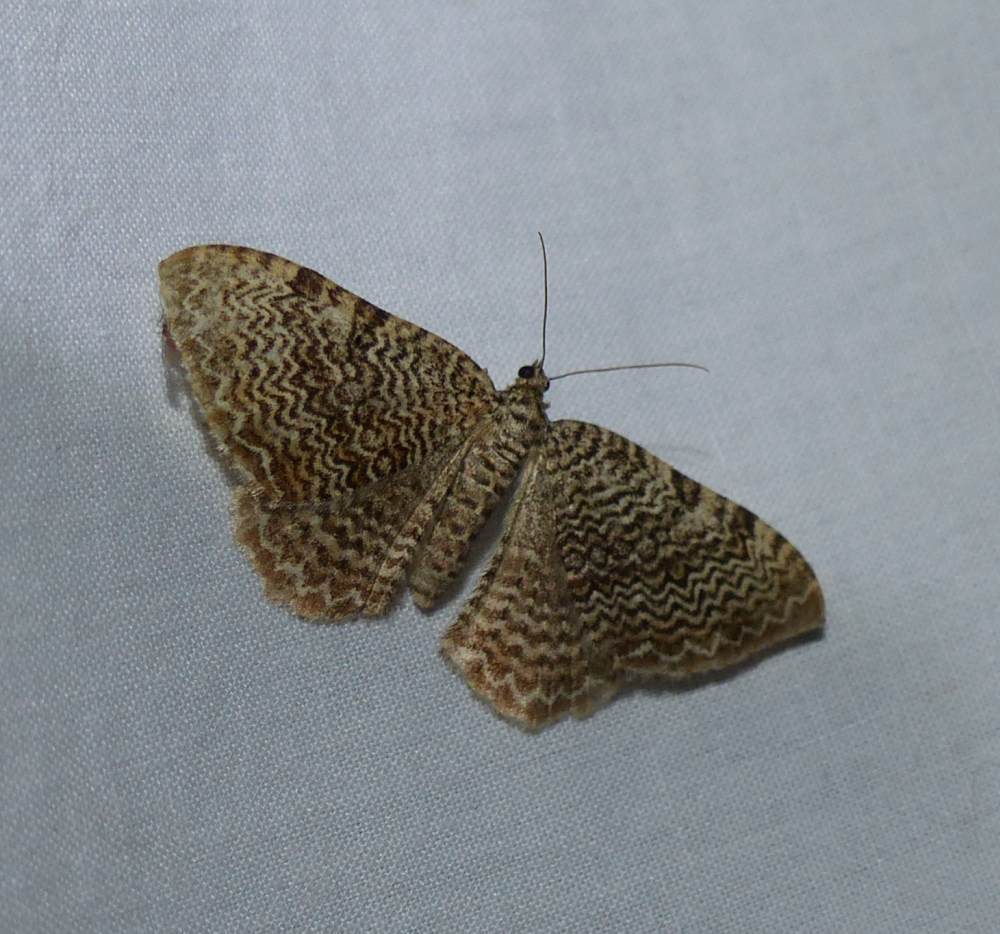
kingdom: Animalia
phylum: Arthropoda
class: Insecta
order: Lepidoptera
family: Geometridae
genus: Rheumaptera
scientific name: Rheumaptera prunivorata
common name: Cherry scallop shell moth
